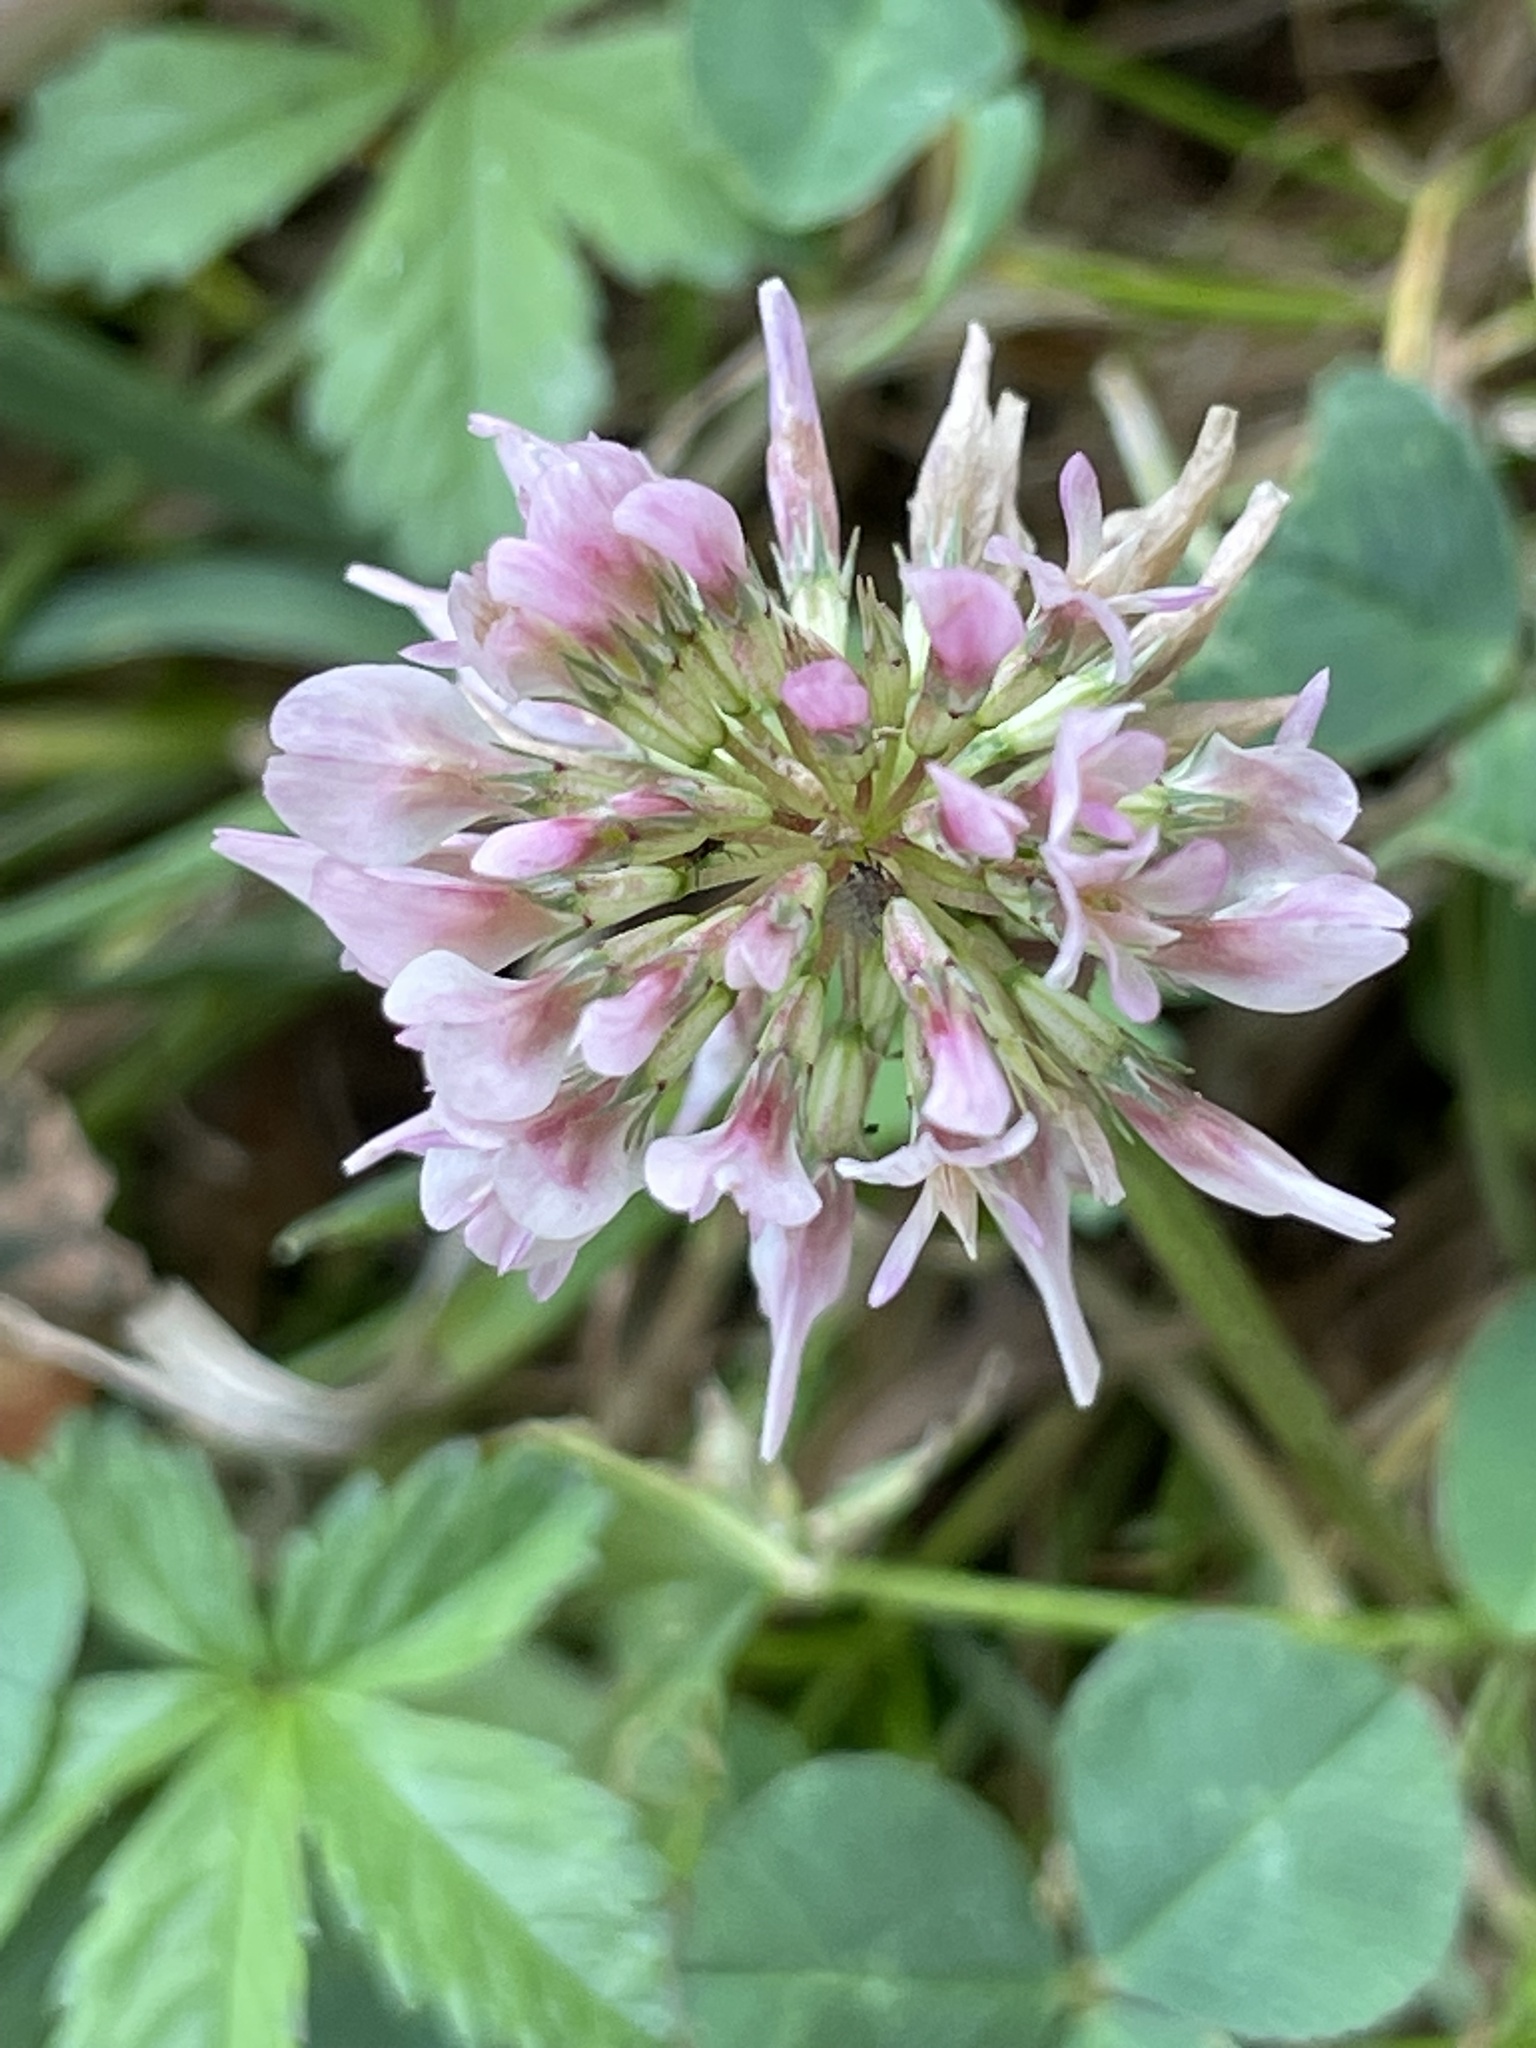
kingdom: Plantae
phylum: Tracheophyta
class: Magnoliopsida
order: Fabales
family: Fabaceae
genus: Trifolium
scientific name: Trifolium repens
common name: White clover
